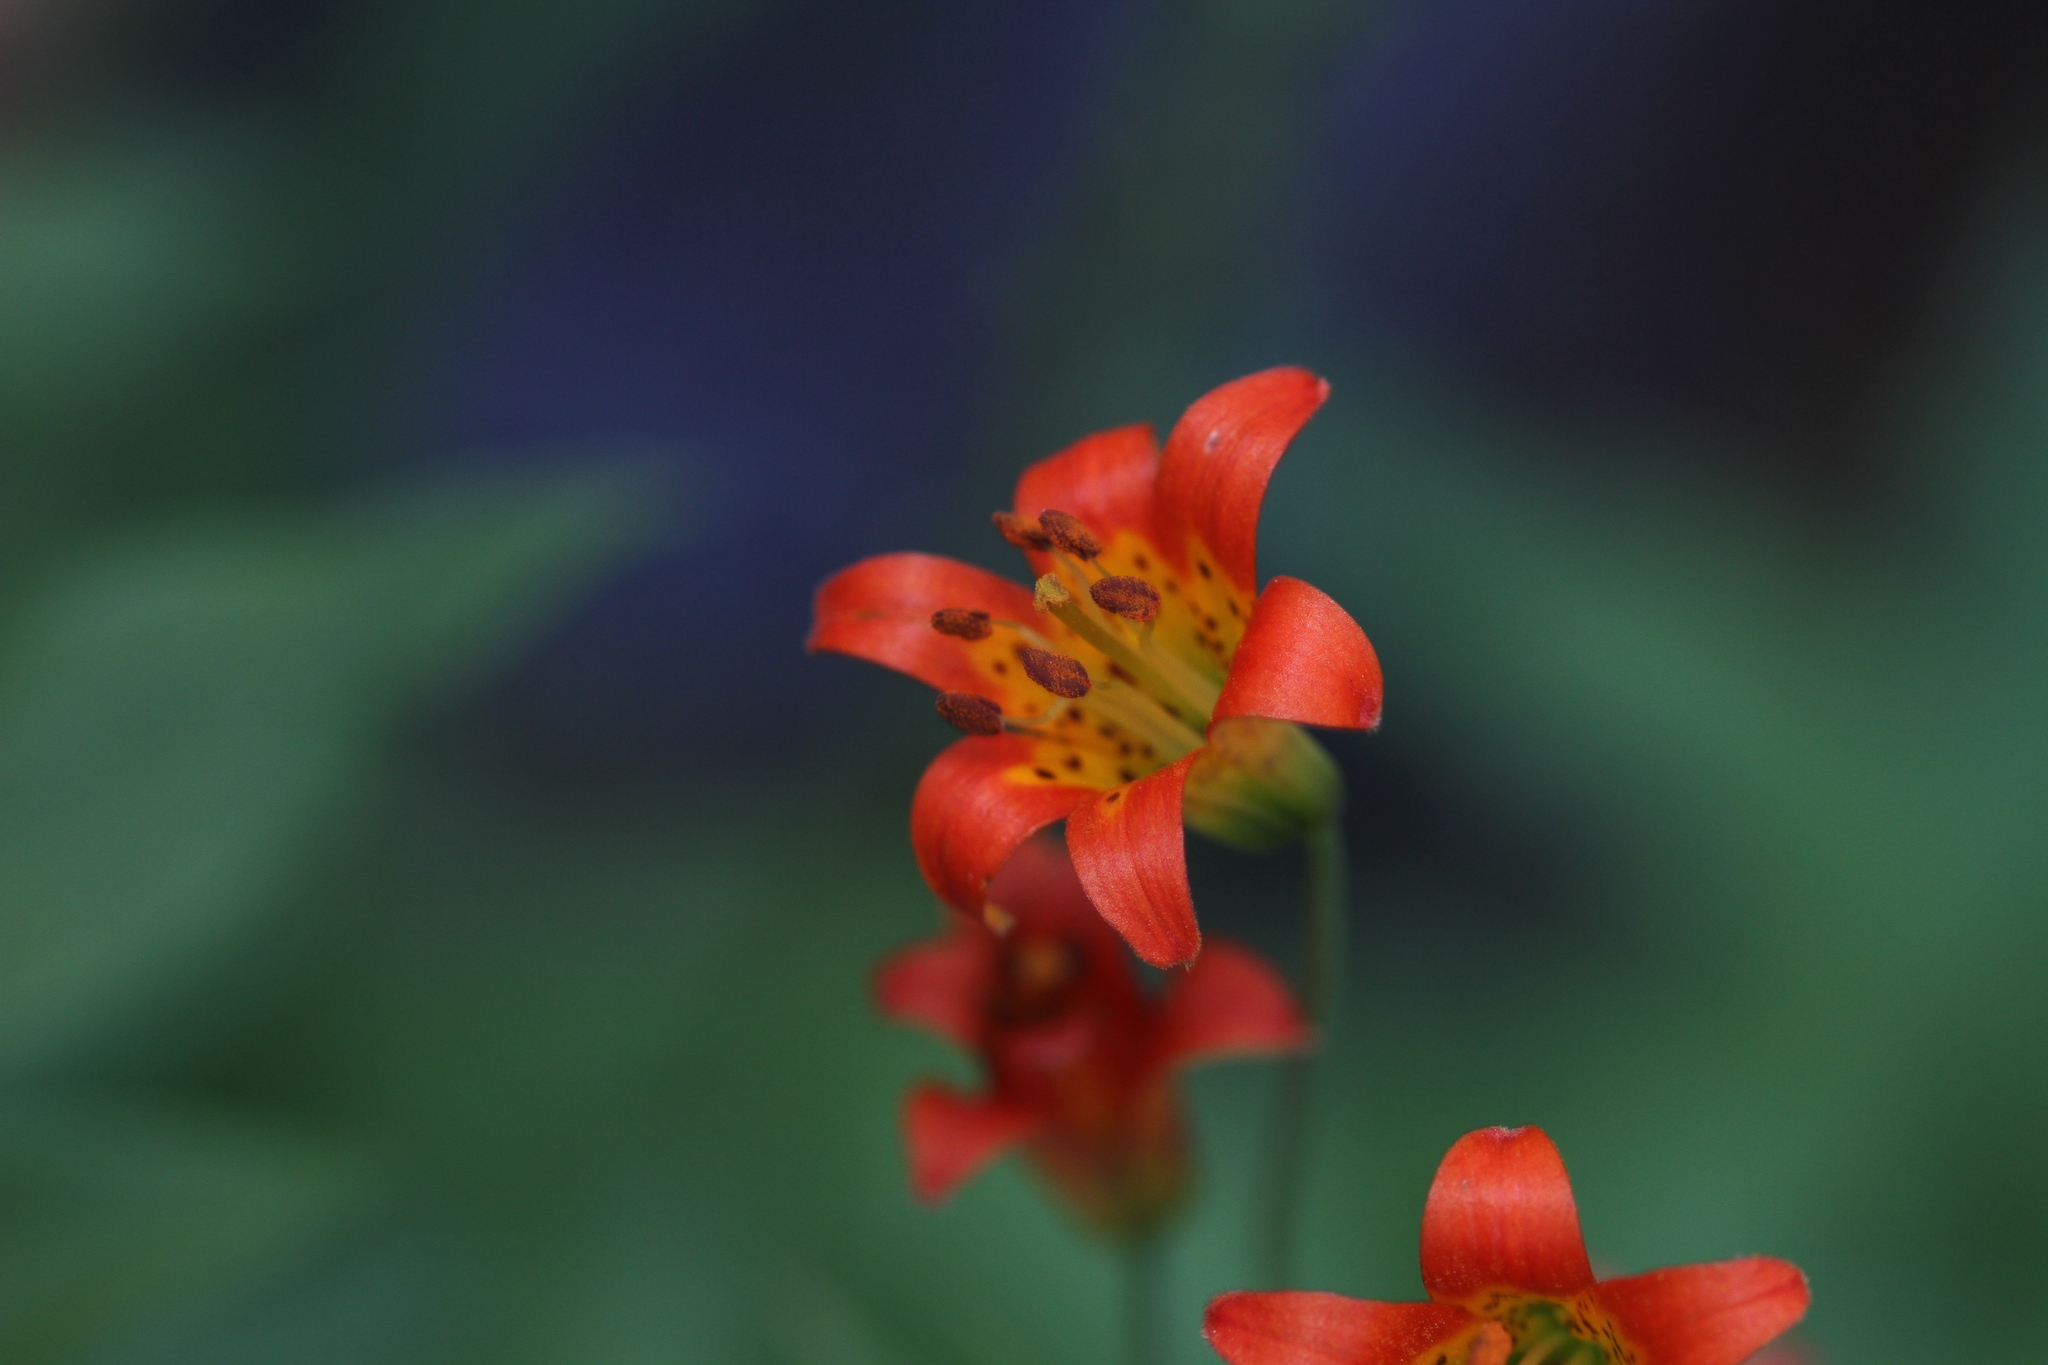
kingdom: Plantae
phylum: Tracheophyta
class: Liliopsida
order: Liliales
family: Liliaceae
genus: Lilium
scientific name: Lilium parvum
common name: Alpine lily
